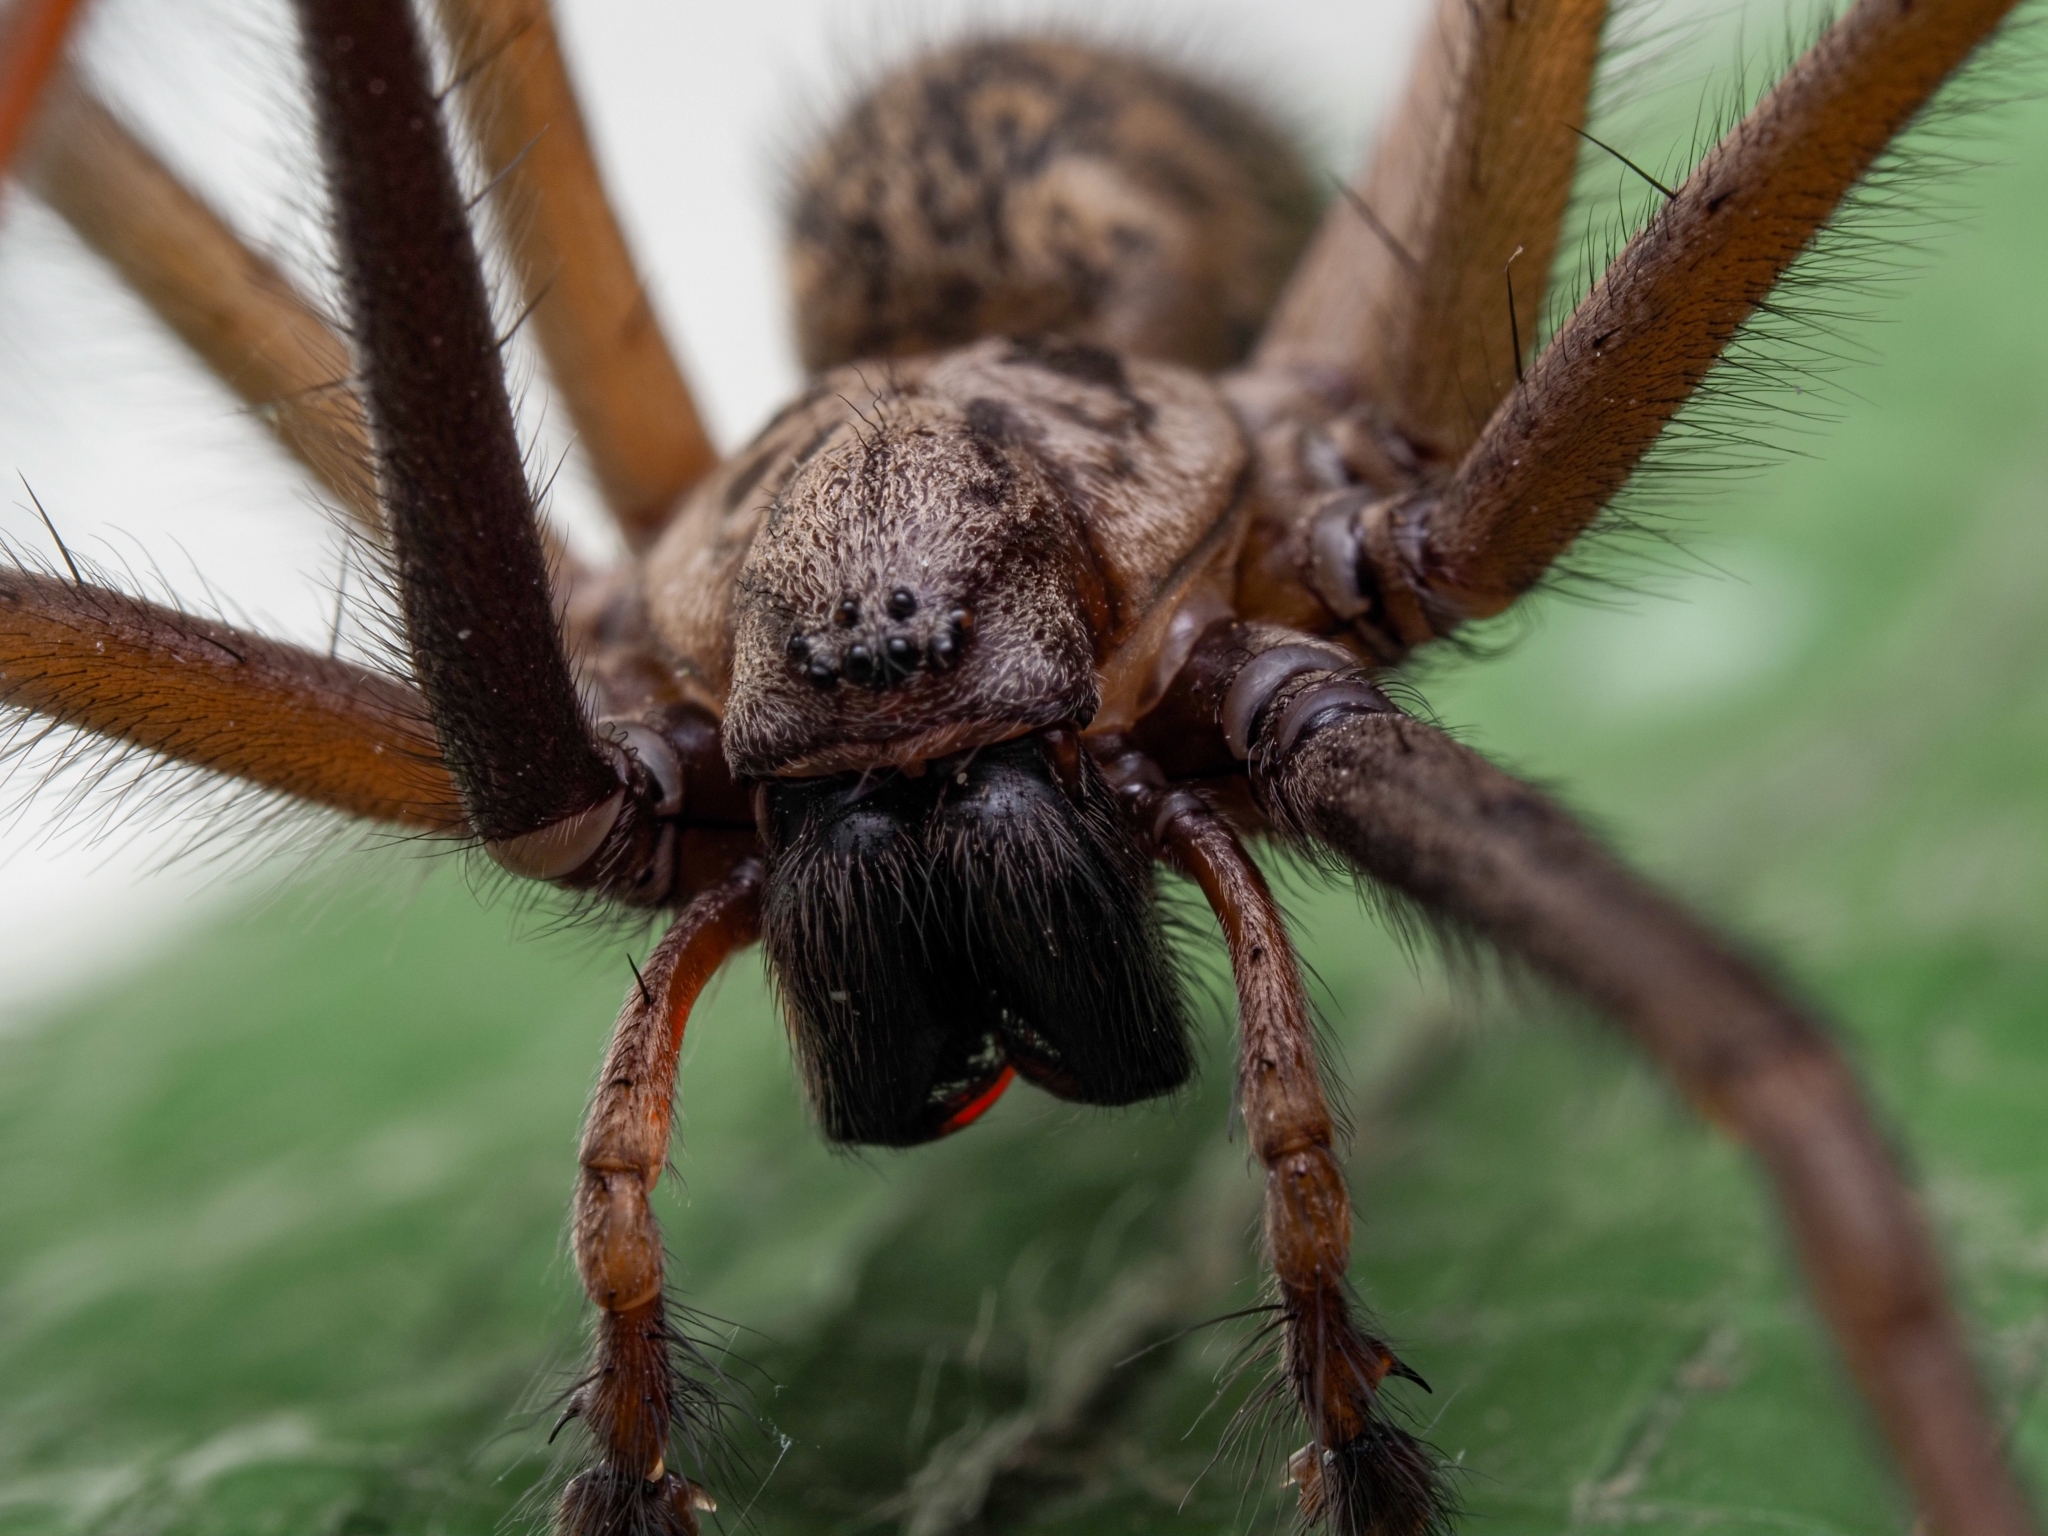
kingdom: Animalia
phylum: Arthropoda
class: Arachnida
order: Araneae
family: Agelenidae
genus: Eratigena
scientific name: Eratigena atrica
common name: Giant house spider
